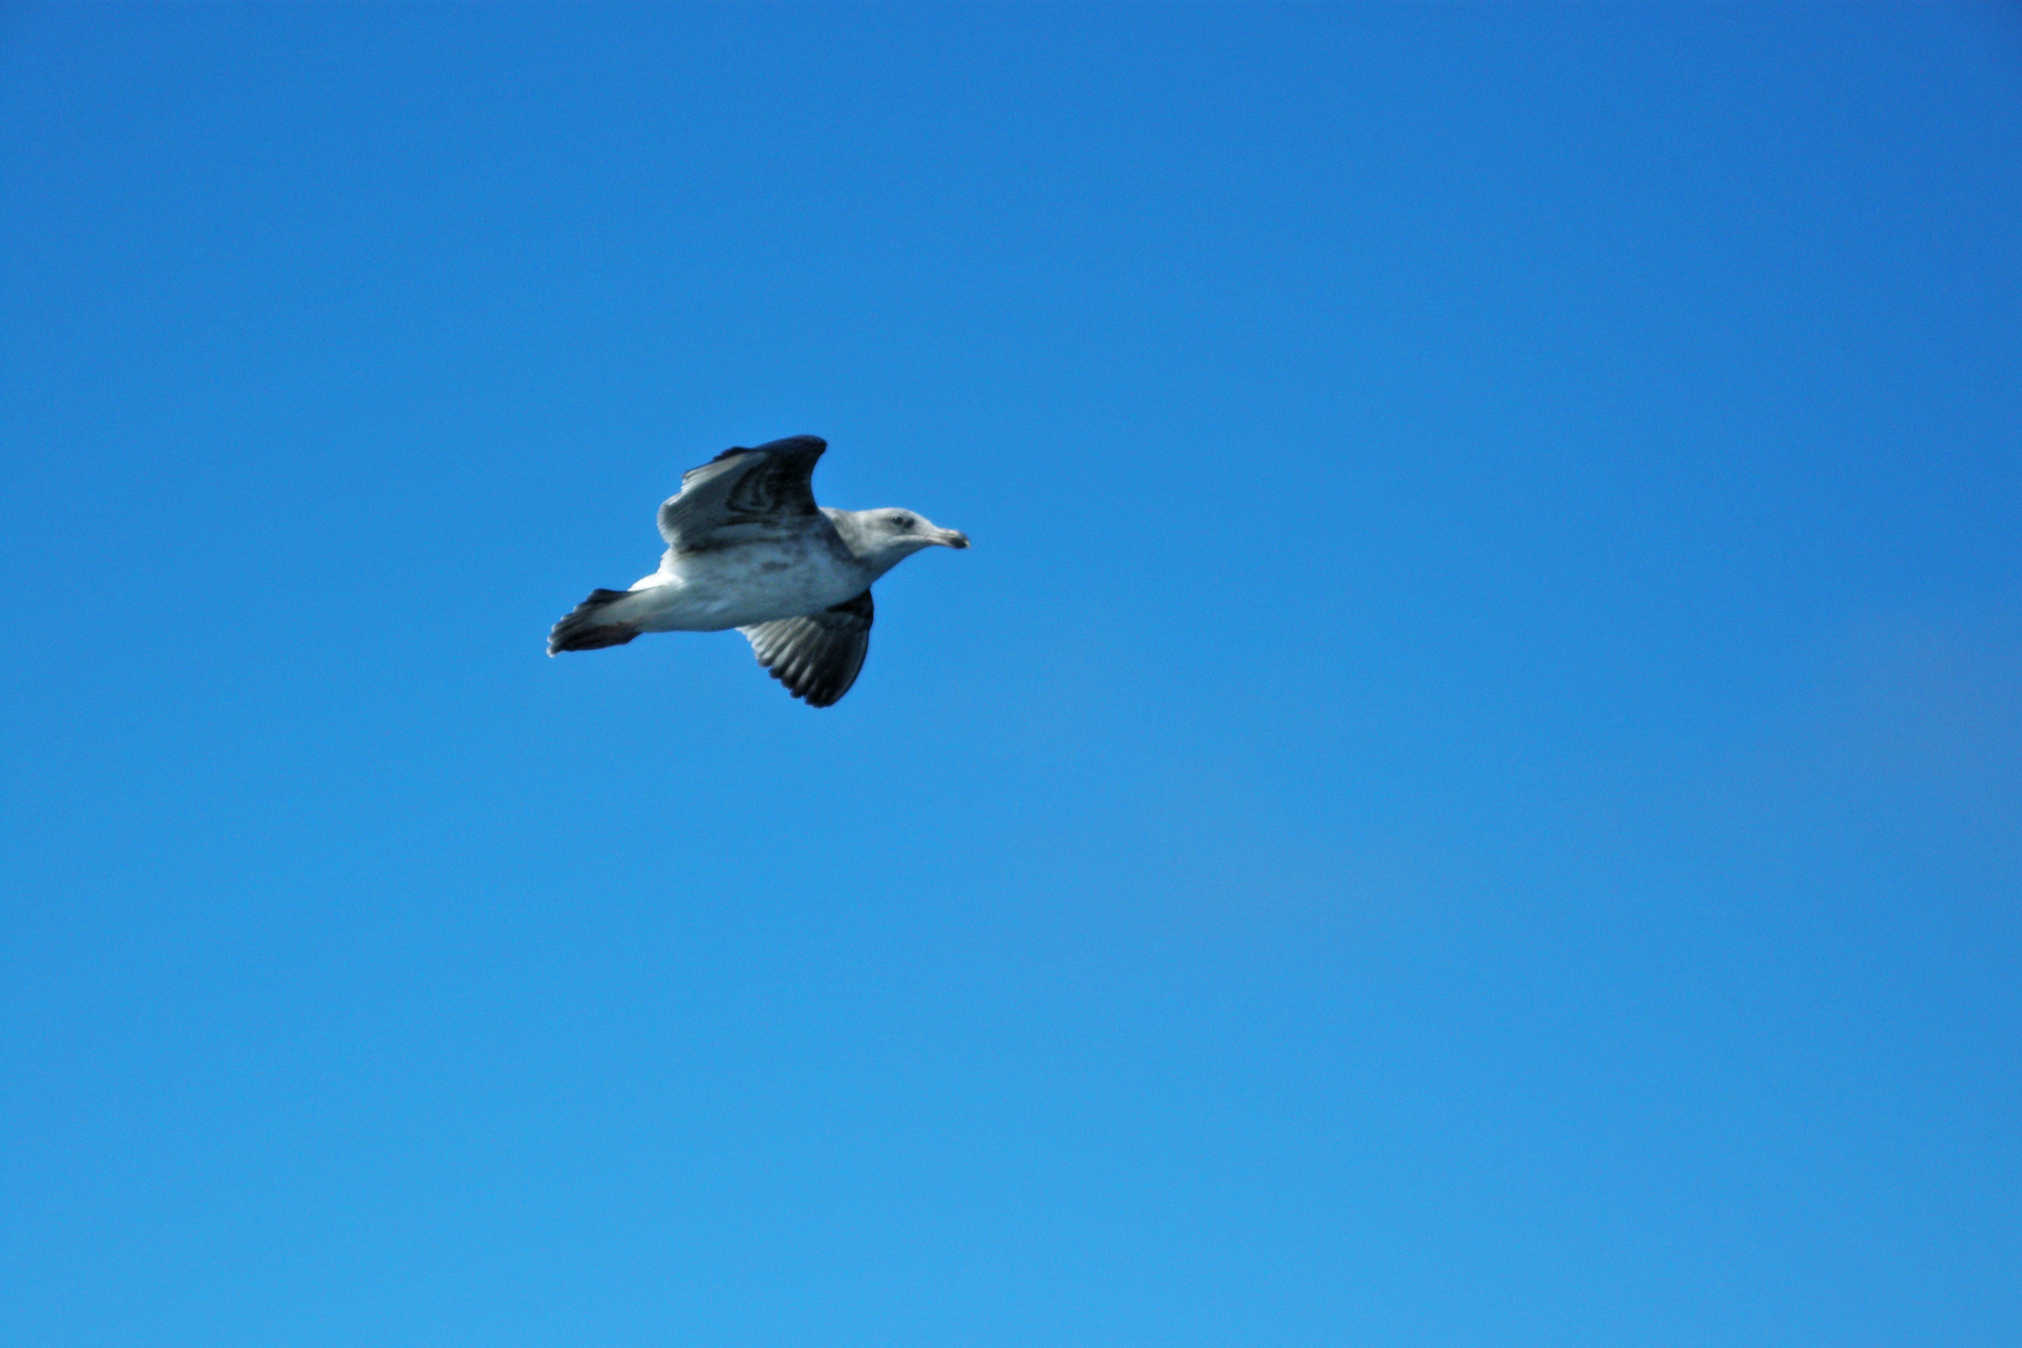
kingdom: Animalia
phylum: Chordata
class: Aves
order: Charadriiformes
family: Laridae
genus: Larus
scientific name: Larus occidentalis
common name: Western gull
